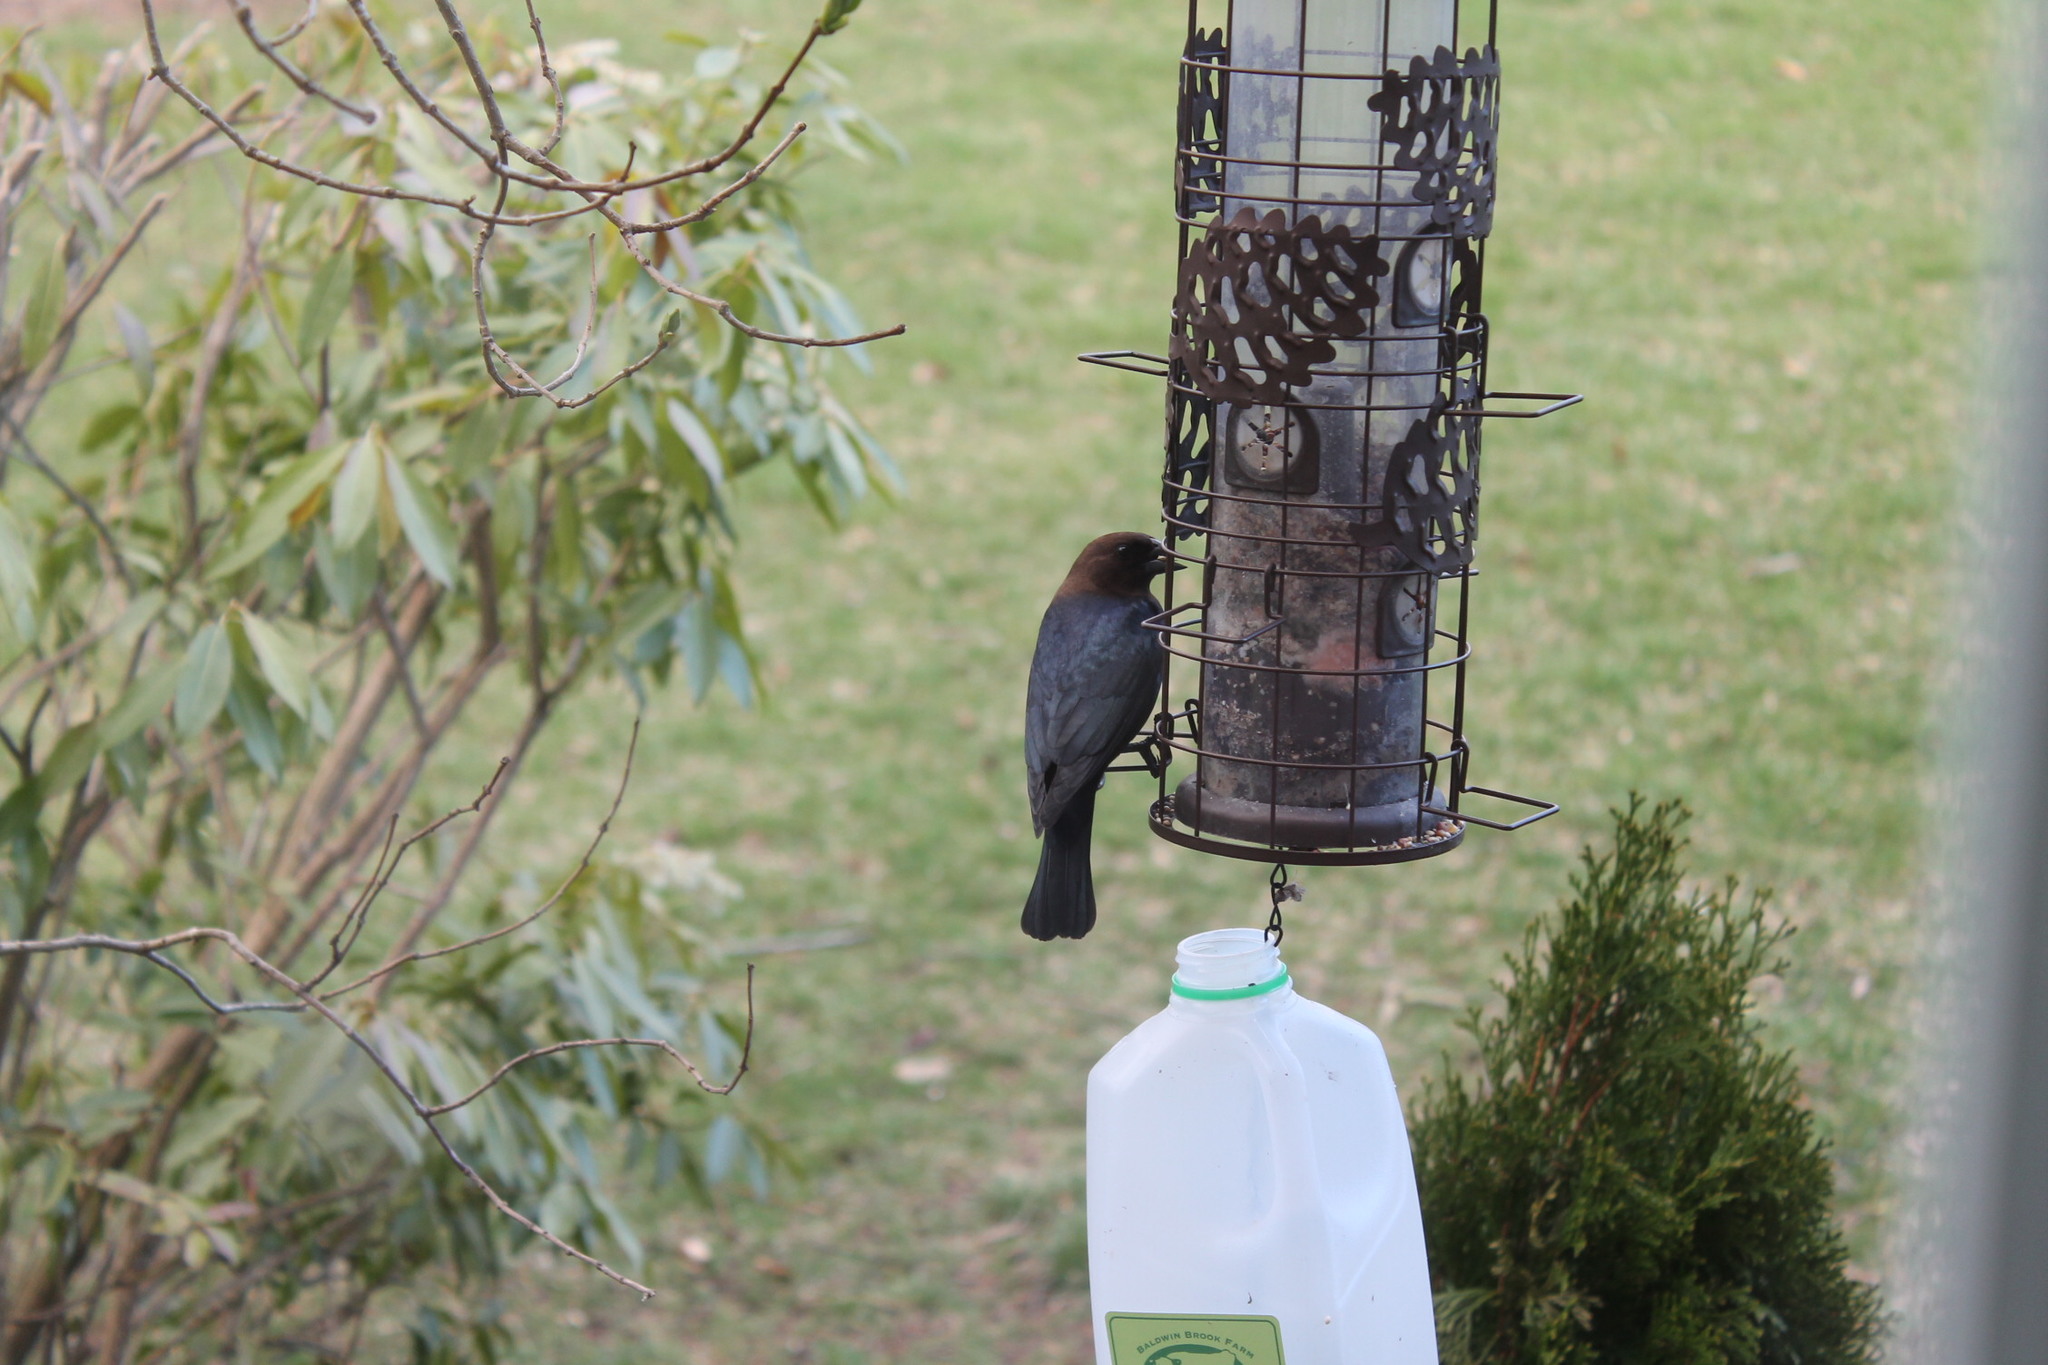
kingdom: Animalia
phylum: Chordata
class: Aves
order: Passeriformes
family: Icteridae
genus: Molothrus
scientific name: Molothrus ater
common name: Brown-headed cowbird
